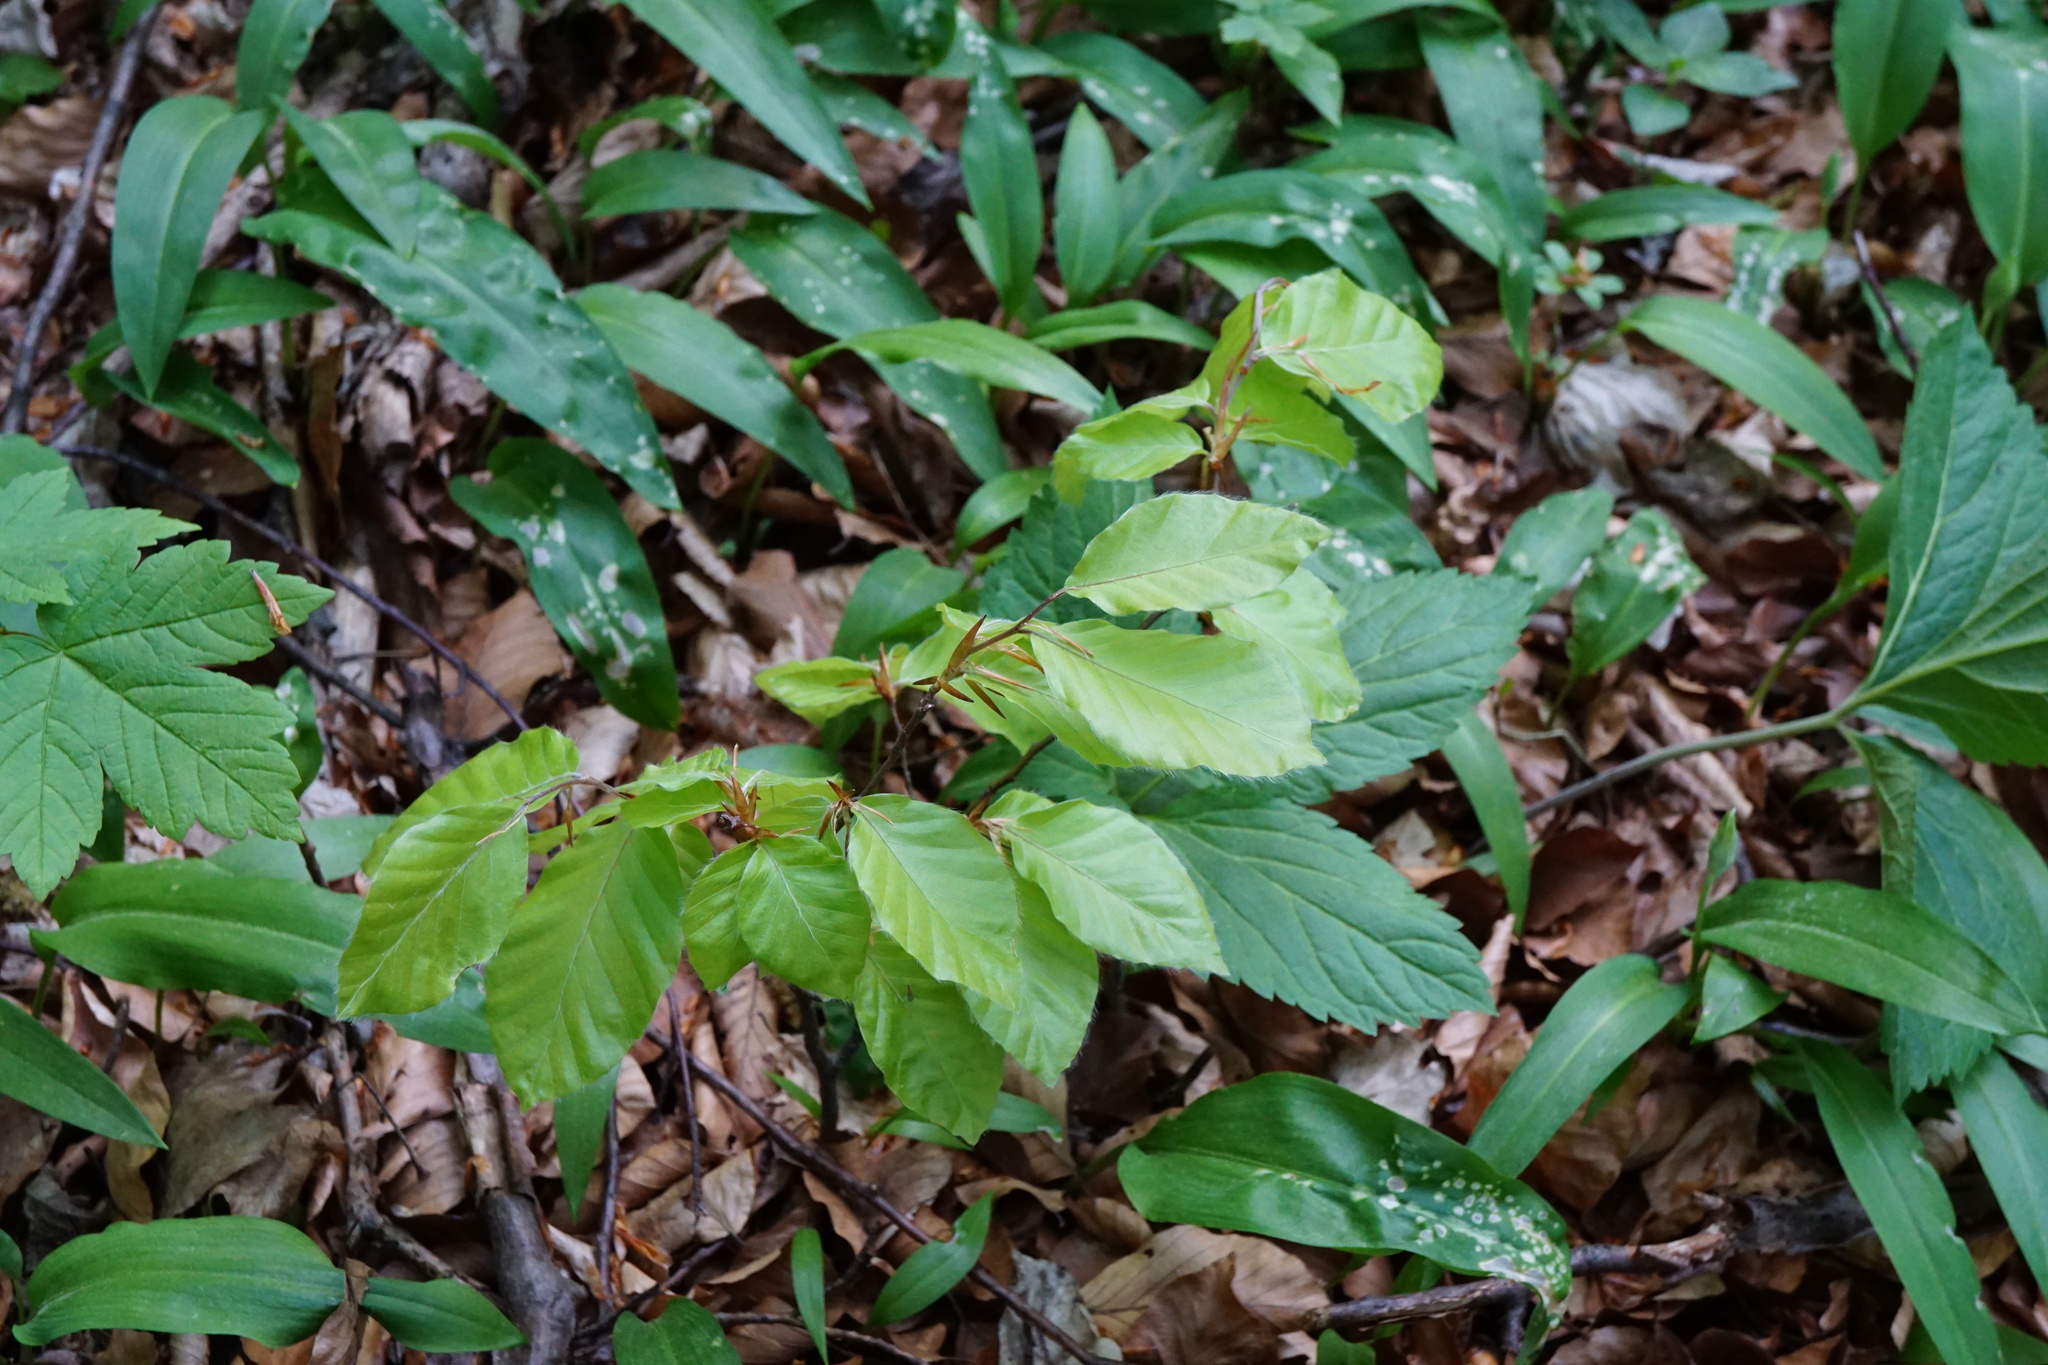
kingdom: Plantae
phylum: Tracheophyta
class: Magnoliopsida
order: Fagales
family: Fagaceae
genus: Fagus
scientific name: Fagus sylvatica
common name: Beech
